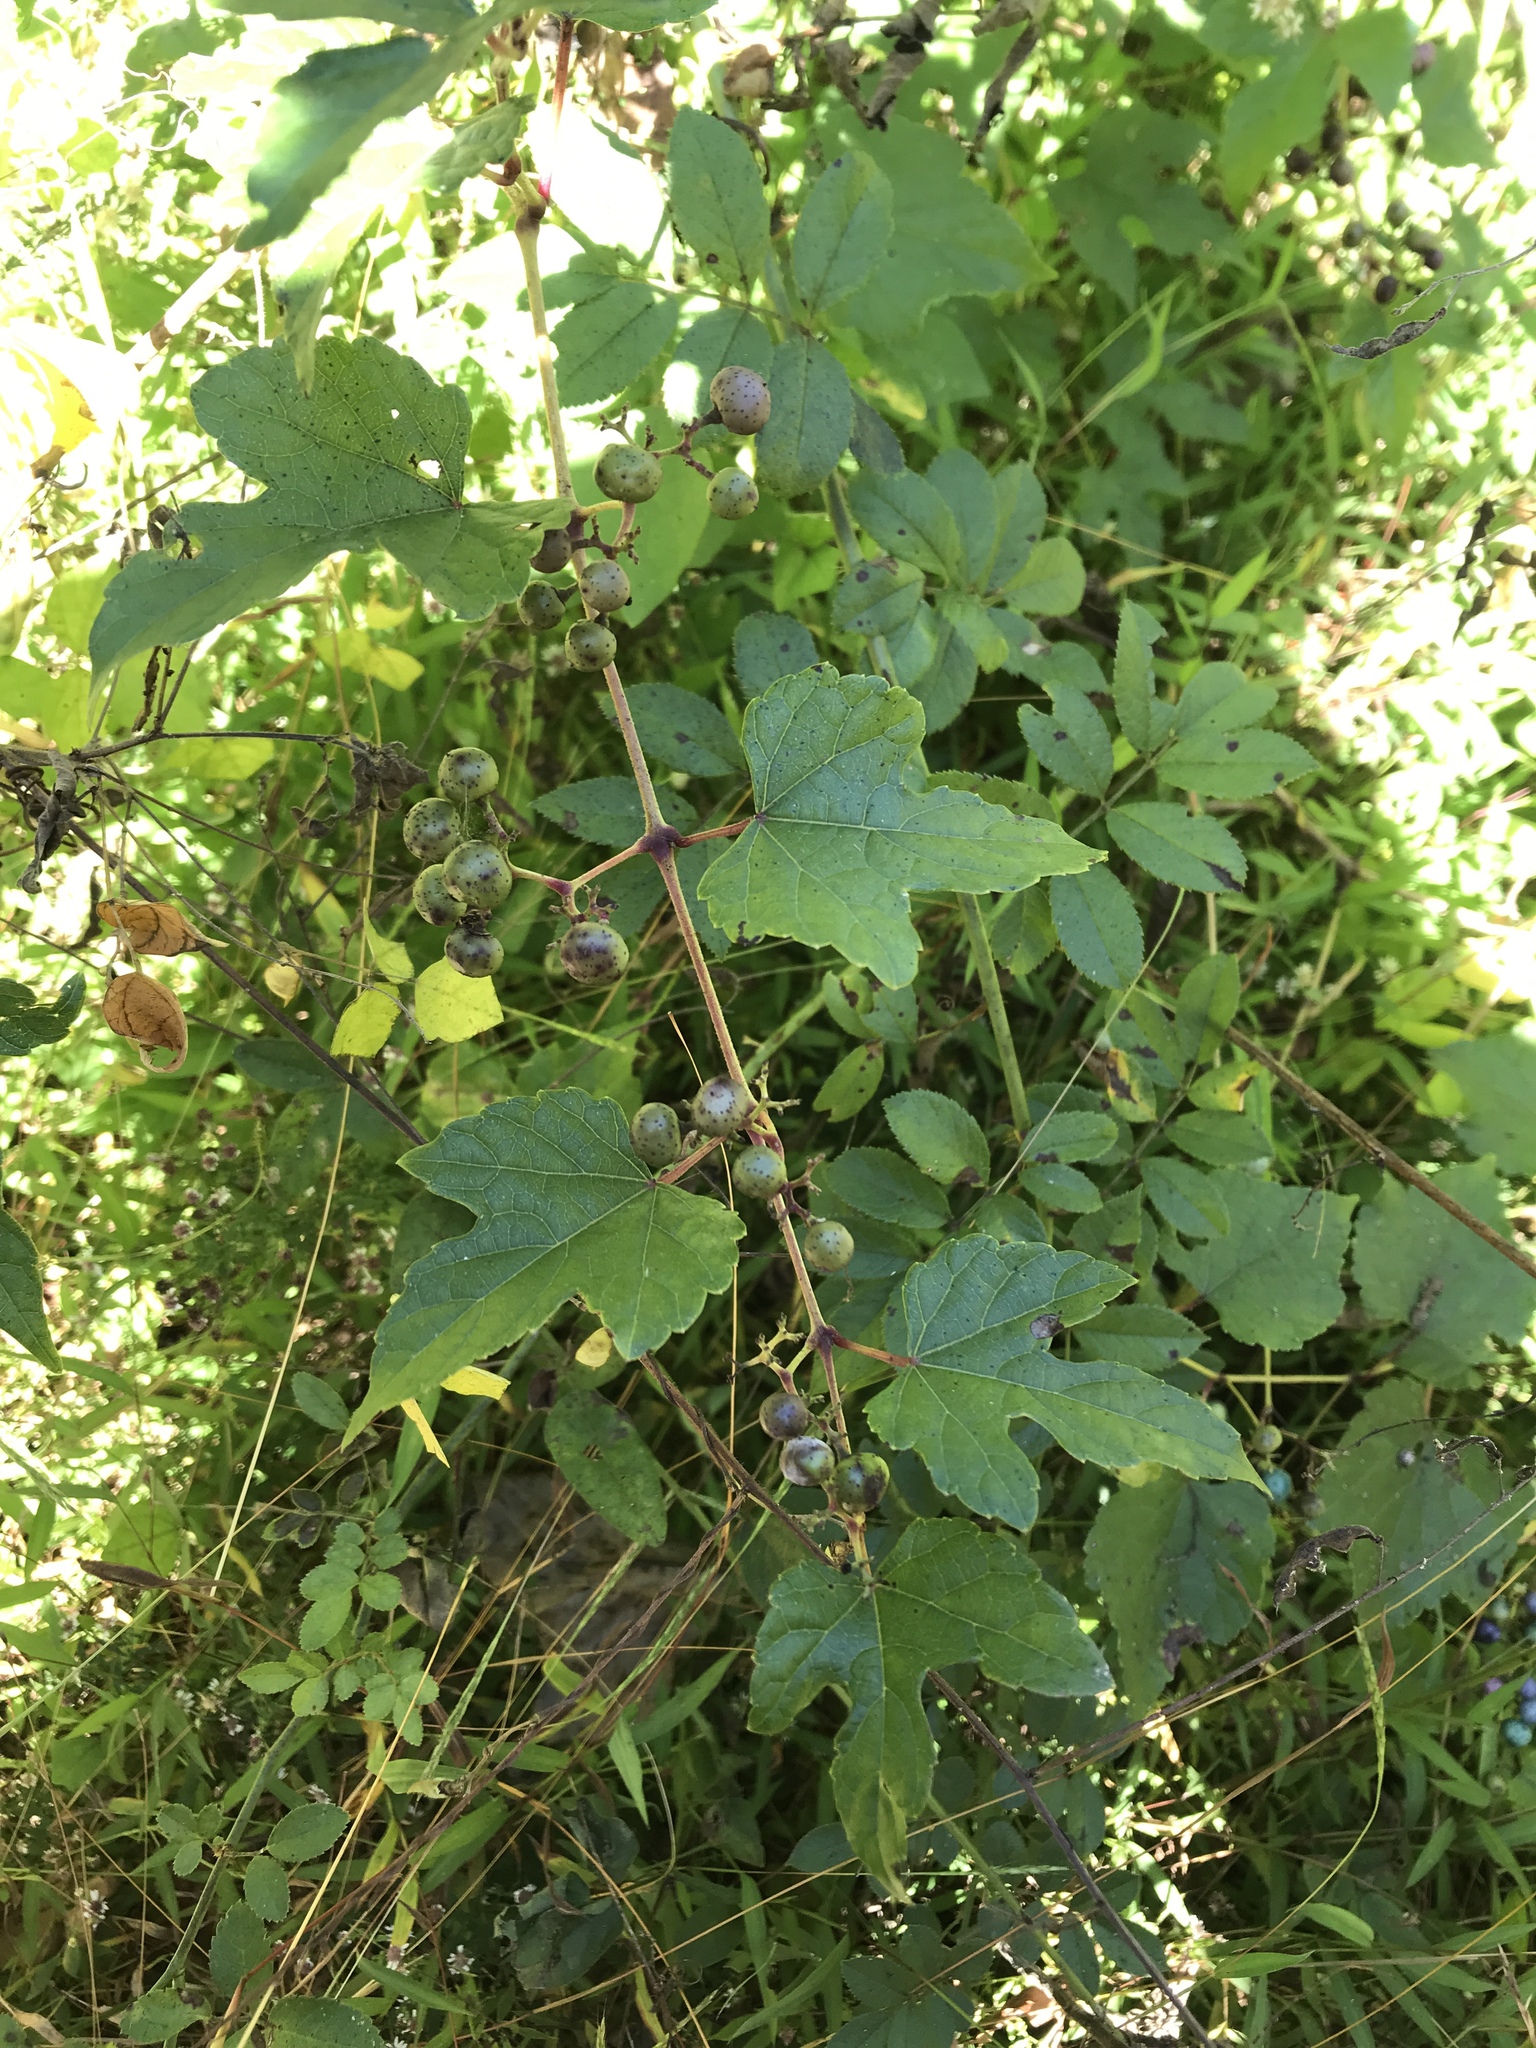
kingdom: Plantae
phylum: Tracheophyta
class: Magnoliopsida
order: Vitales
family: Vitaceae
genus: Ampelopsis
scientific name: Ampelopsis glandulosa
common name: Amur peppervine
